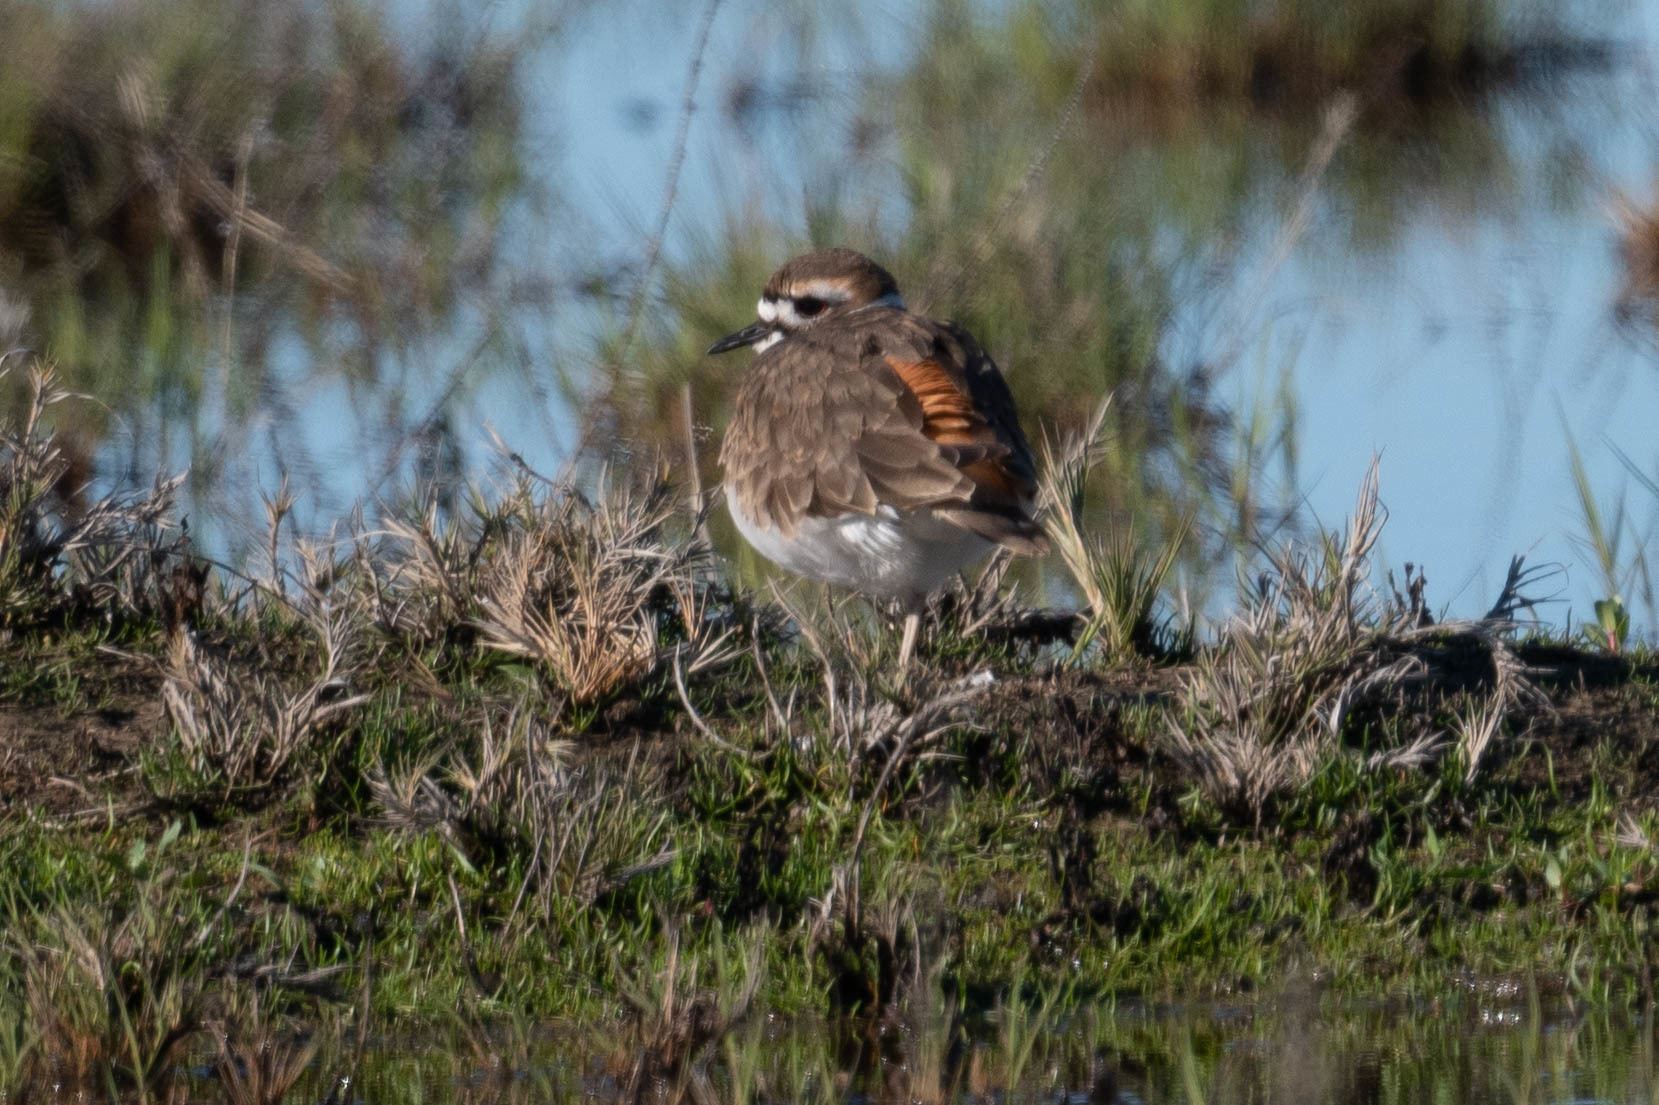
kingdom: Animalia
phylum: Chordata
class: Aves
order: Charadriiformes
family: Charadriidae
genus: Charadrius
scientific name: Charadrius vociferus
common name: Killdeer
